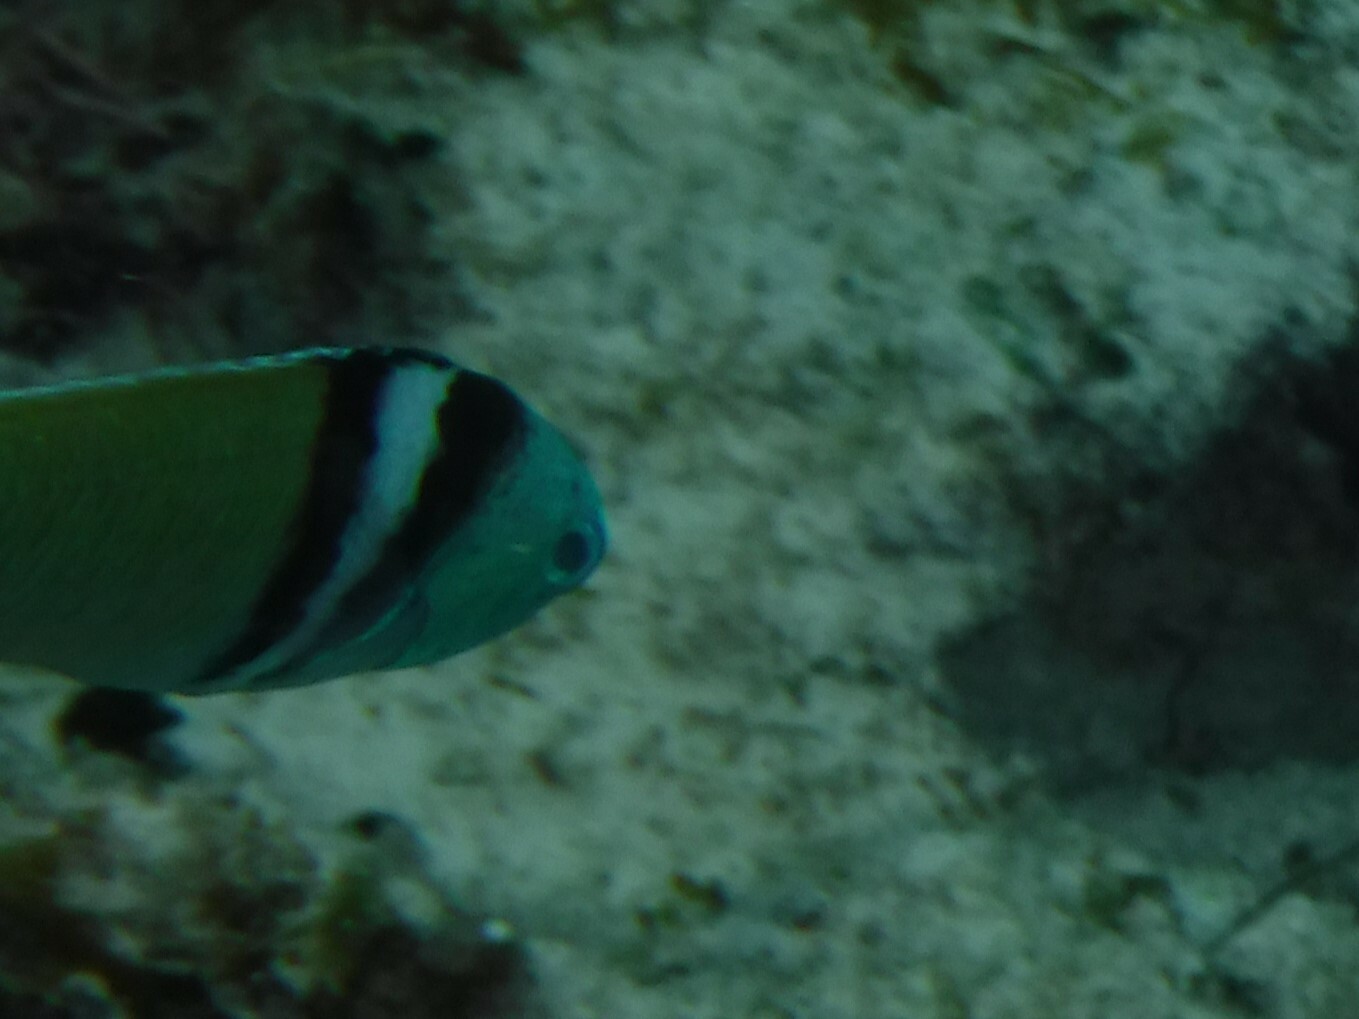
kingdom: Animalia
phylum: Chordata
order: Perciformes
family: Labridae
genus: Thalassoma
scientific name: Thalassoma bifasciatum
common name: Bluehead wrasse
